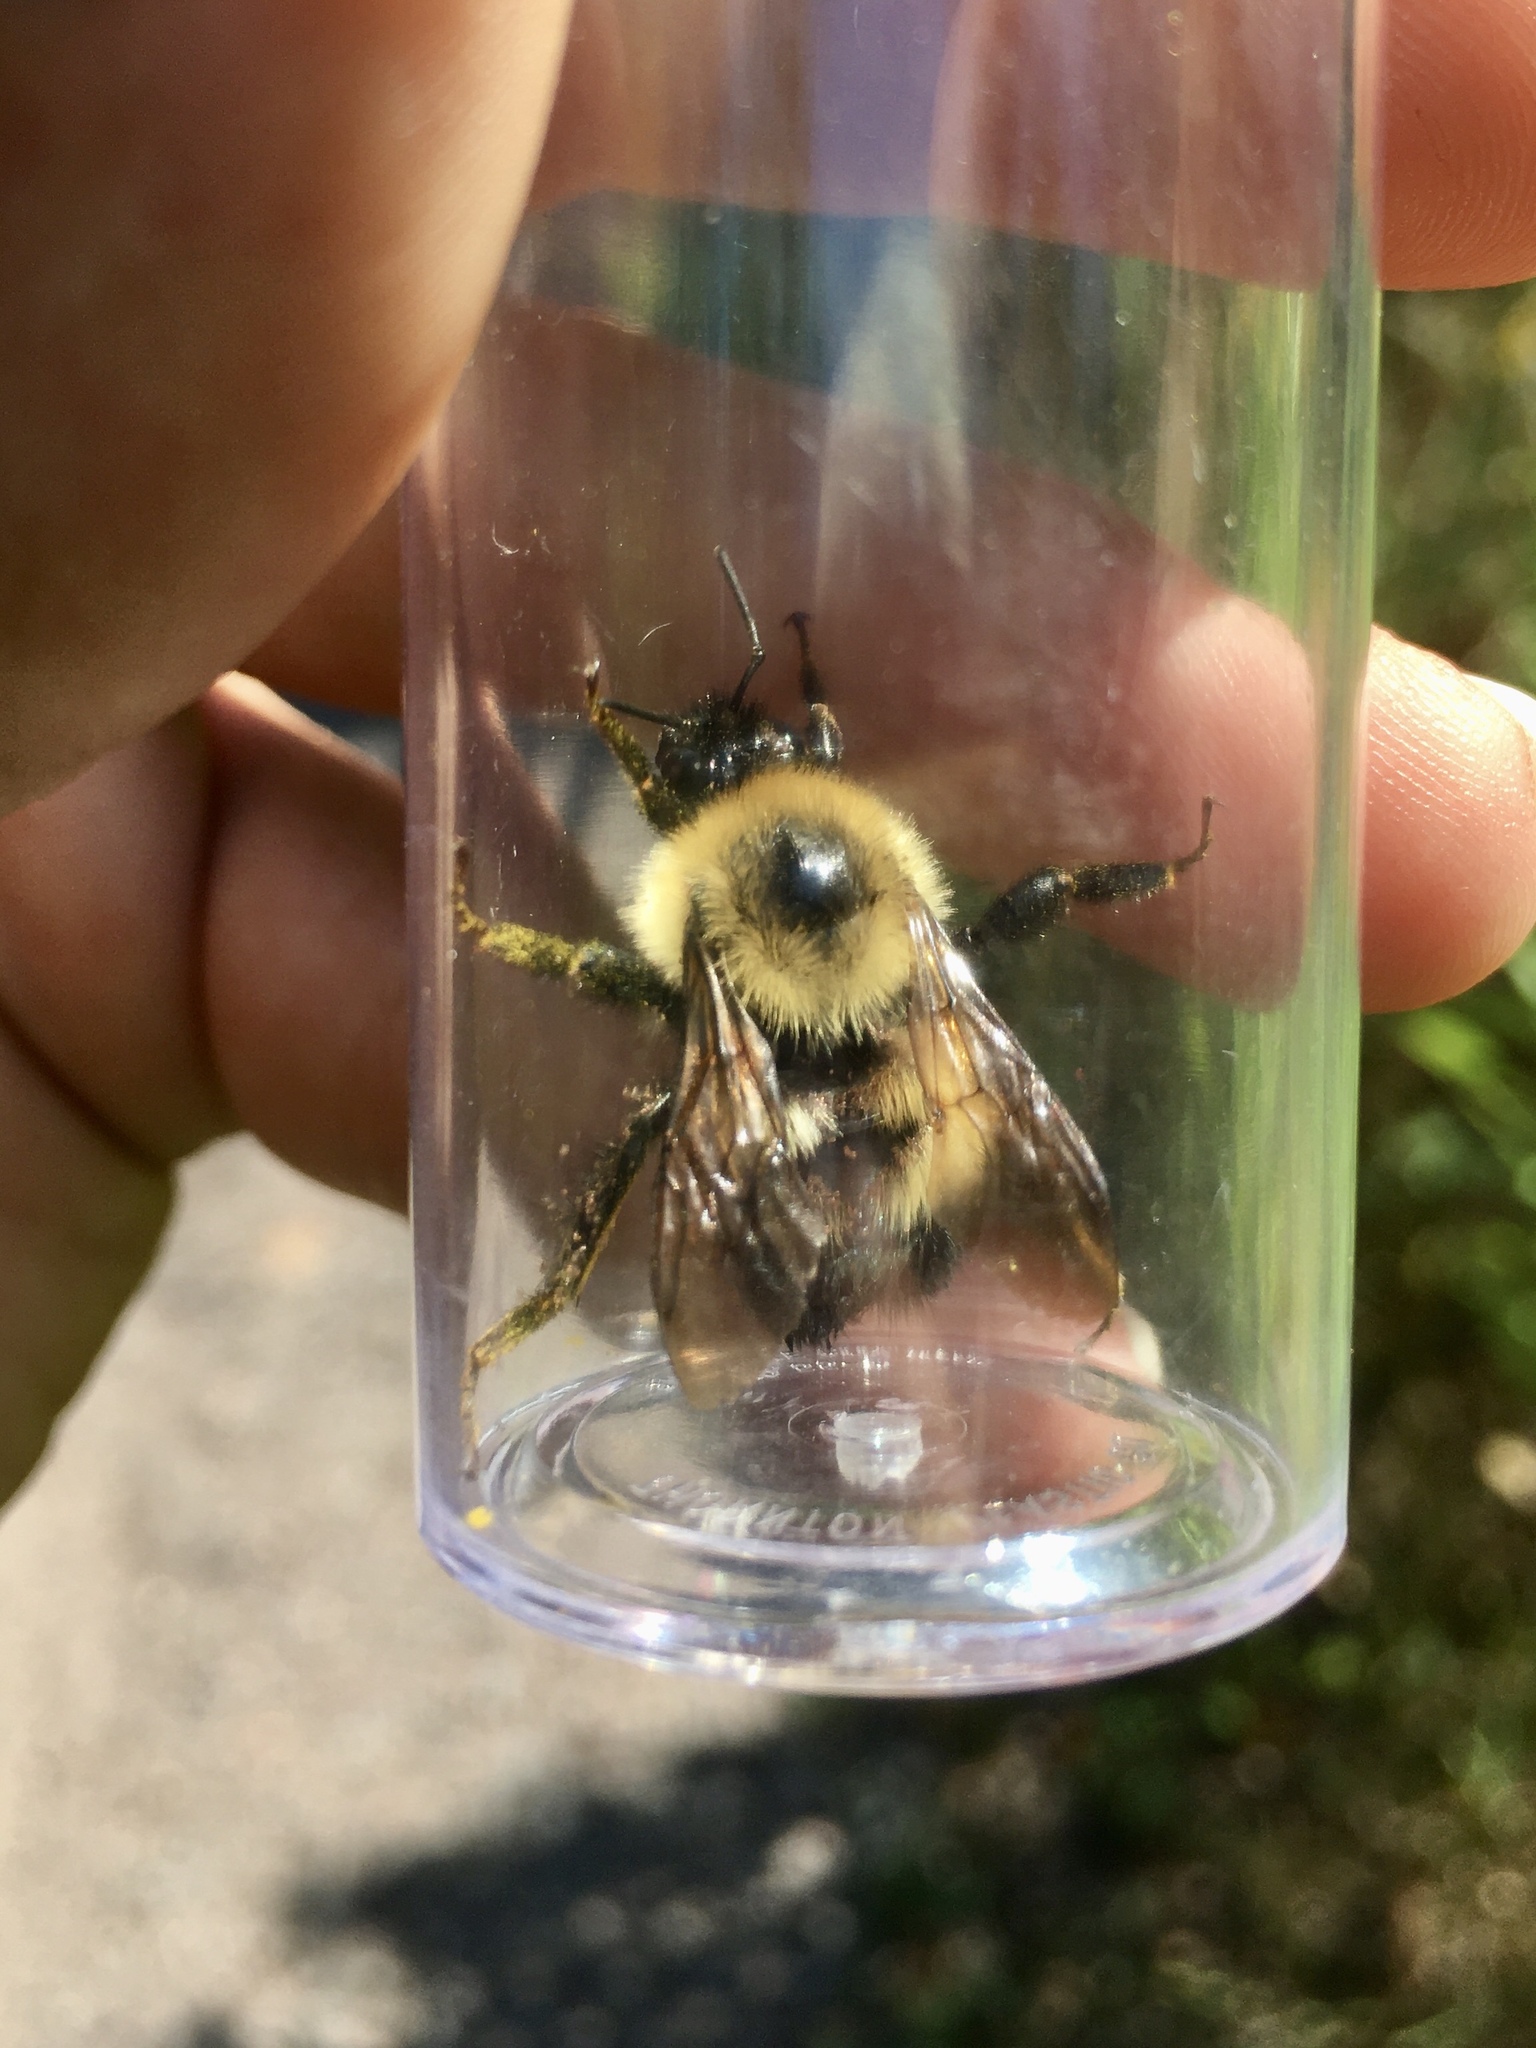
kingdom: Animalia
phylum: Arthropoda
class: Insecta
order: Hymenoptera
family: Apidae
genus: Pyrobombus
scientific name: Pyrobombus
